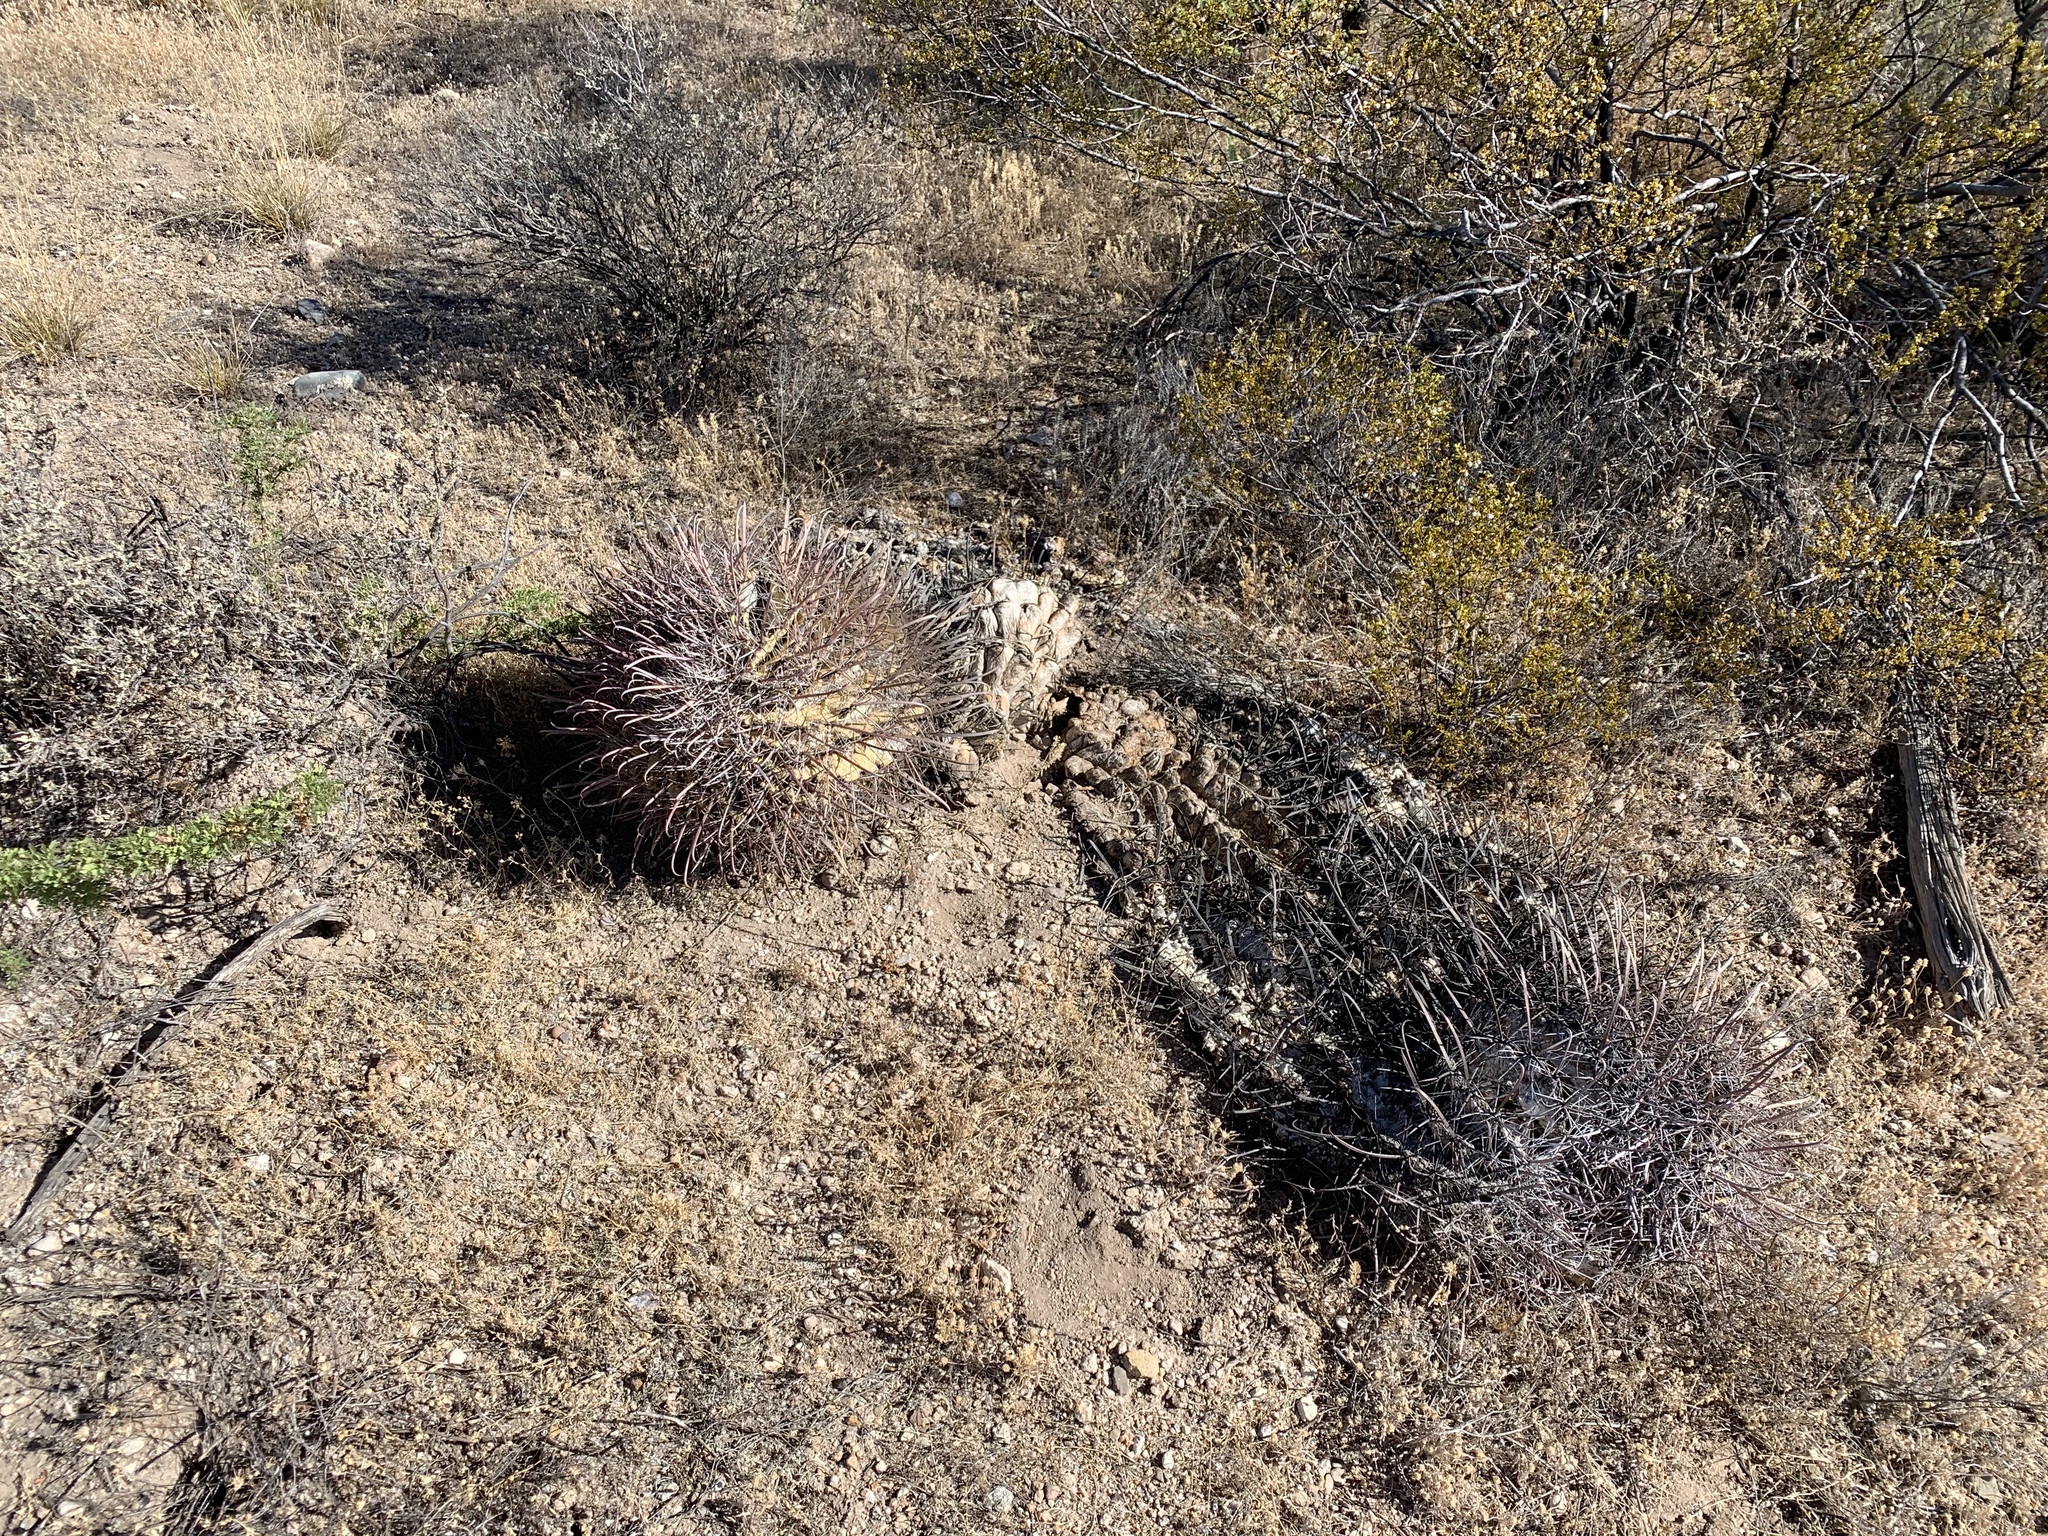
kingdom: Plantae
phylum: Tracheophyta
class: Magnoliopsida
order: Caryophyllales
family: Cactaceae
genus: Ferocactus
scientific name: Ferocactus wislizeni
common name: Candy barrel cactus
